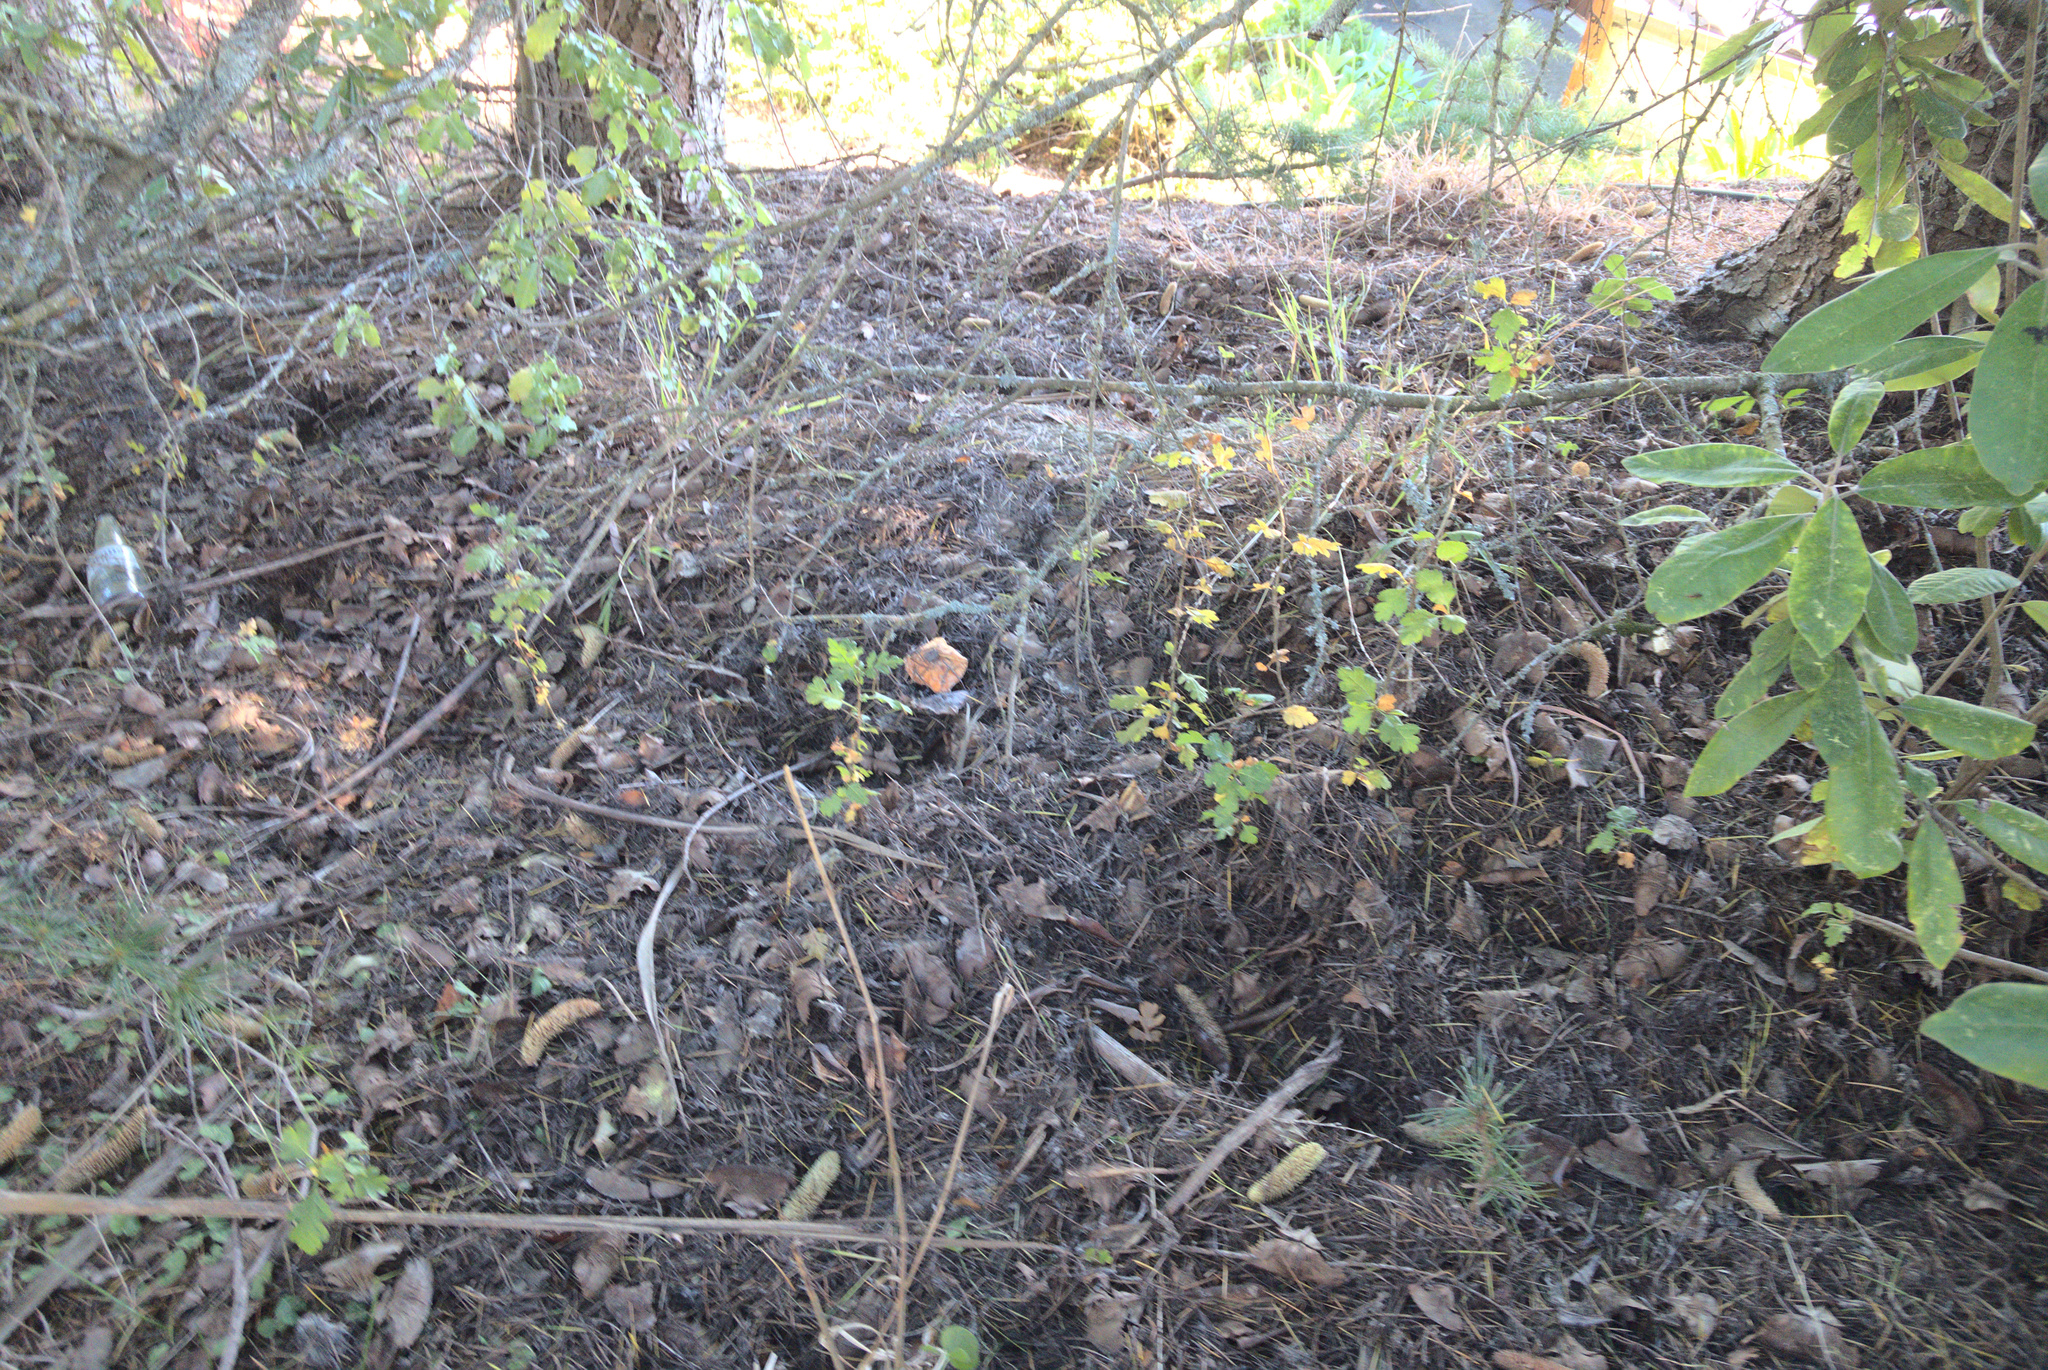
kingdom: Plantae
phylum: Tracheophyta
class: Magnoliopsida
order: Rosales
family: Rosaceae
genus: Crataegus
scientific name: Crataegus monogyna
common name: Hawthorn
